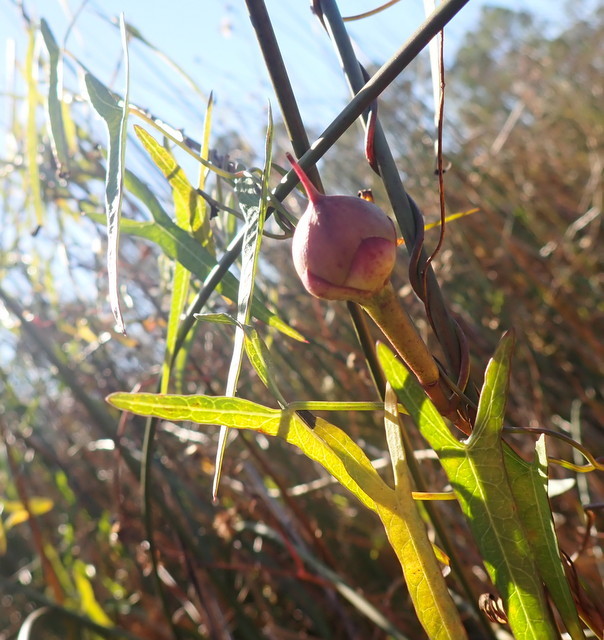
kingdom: Plantae
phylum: Tracheophyta
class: Magnoliopsida
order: Solanales
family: Convolvulaceae
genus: Ipomoea
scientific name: Ipomoea sagittata
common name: Saltmarsh morning glory
